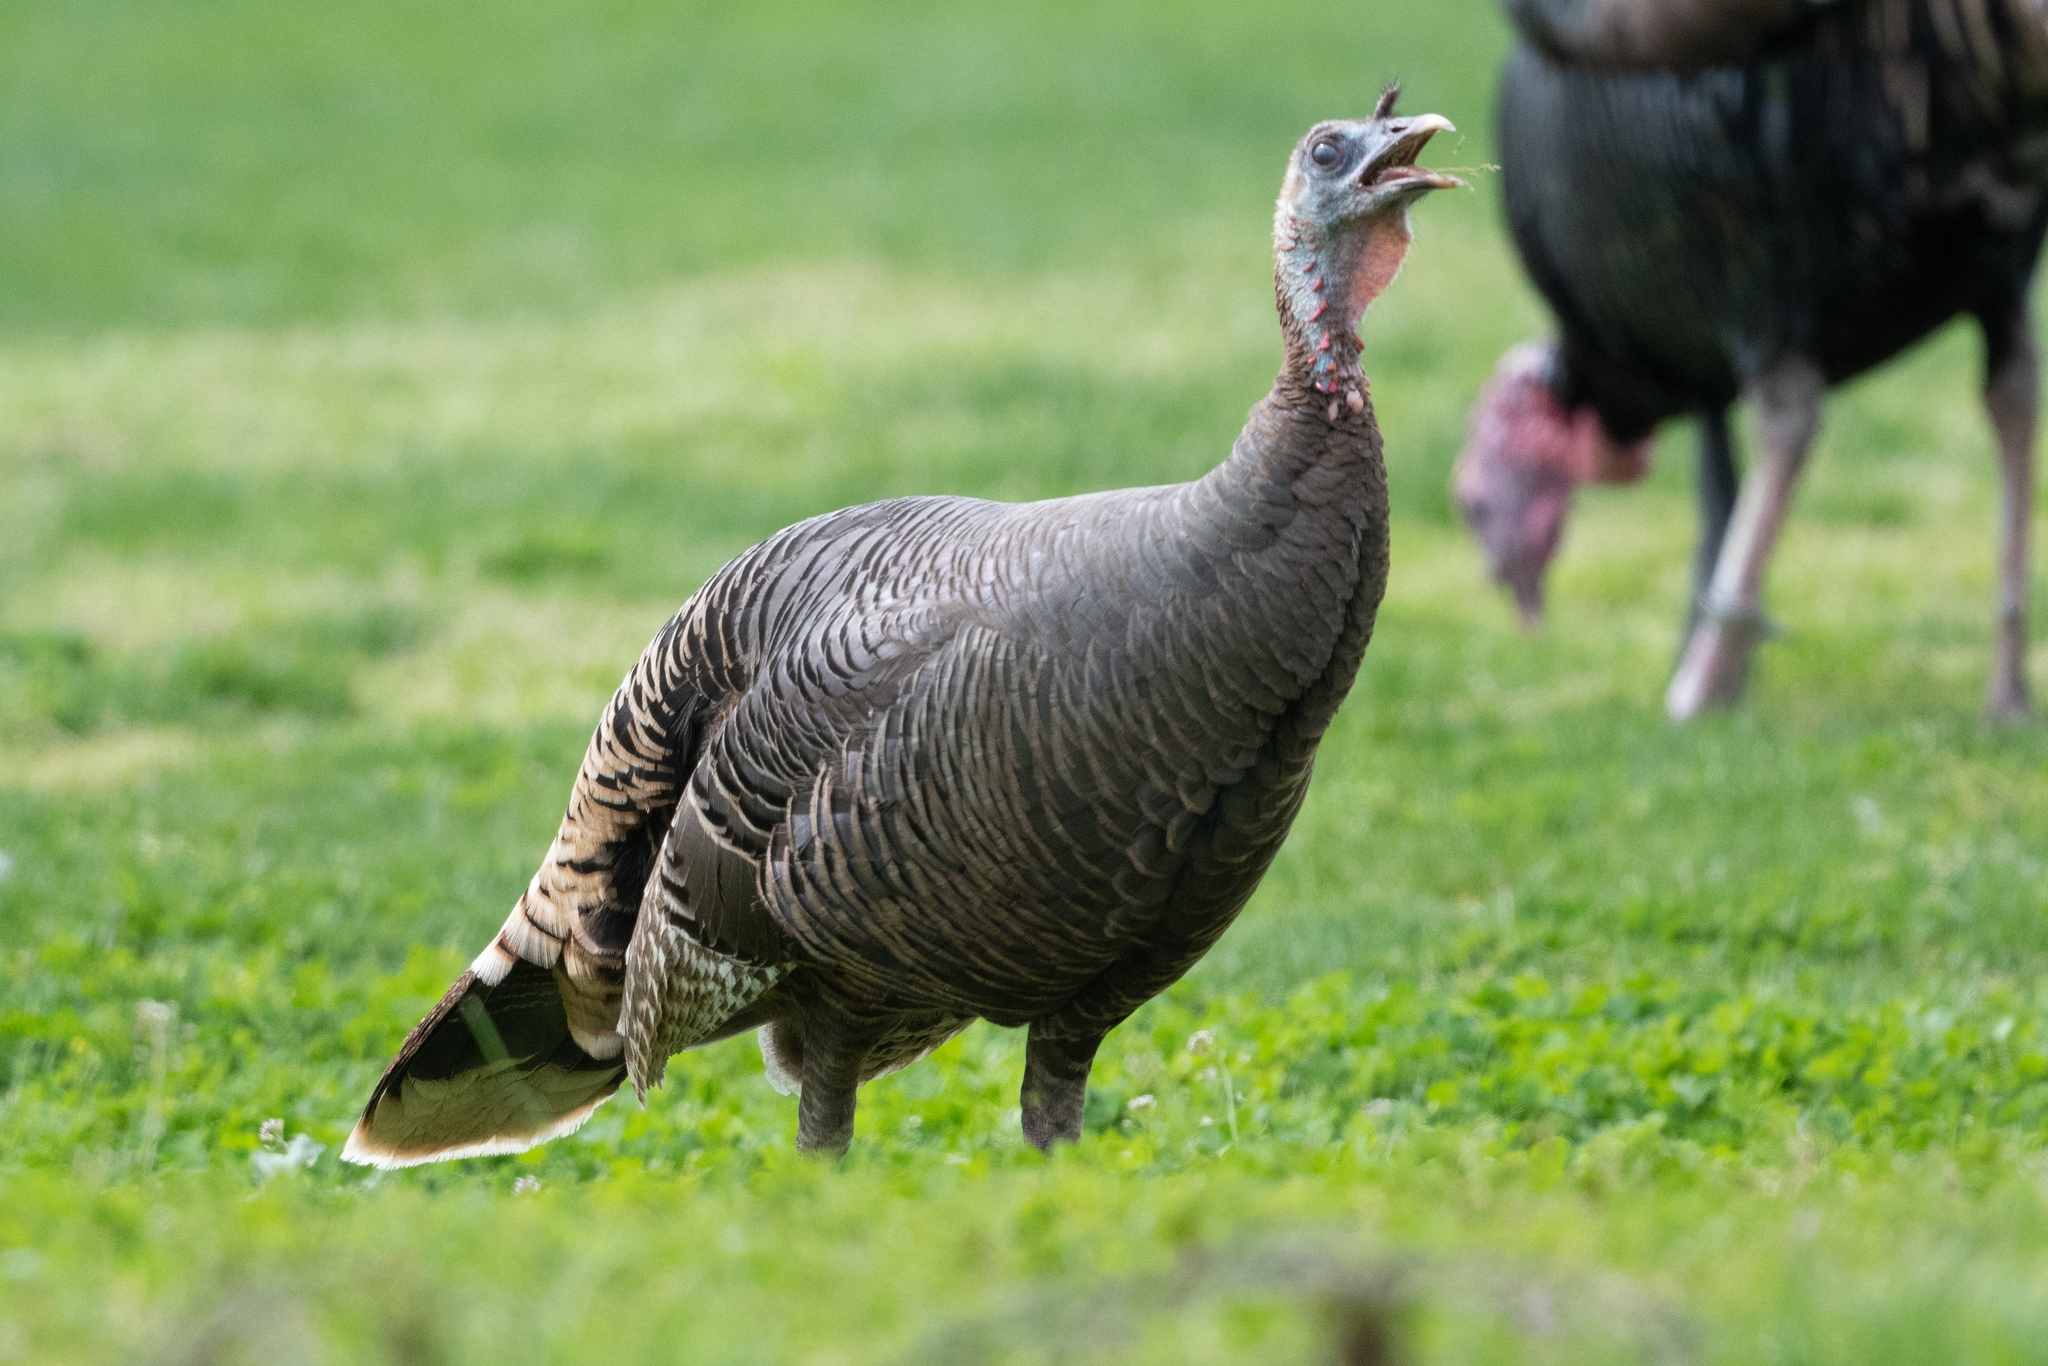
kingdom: Animalia
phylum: Chordata
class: Aves
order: Galliformes
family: Phasianidae
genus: Meleagris
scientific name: Meleagris gallopavo
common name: Wild turkey
